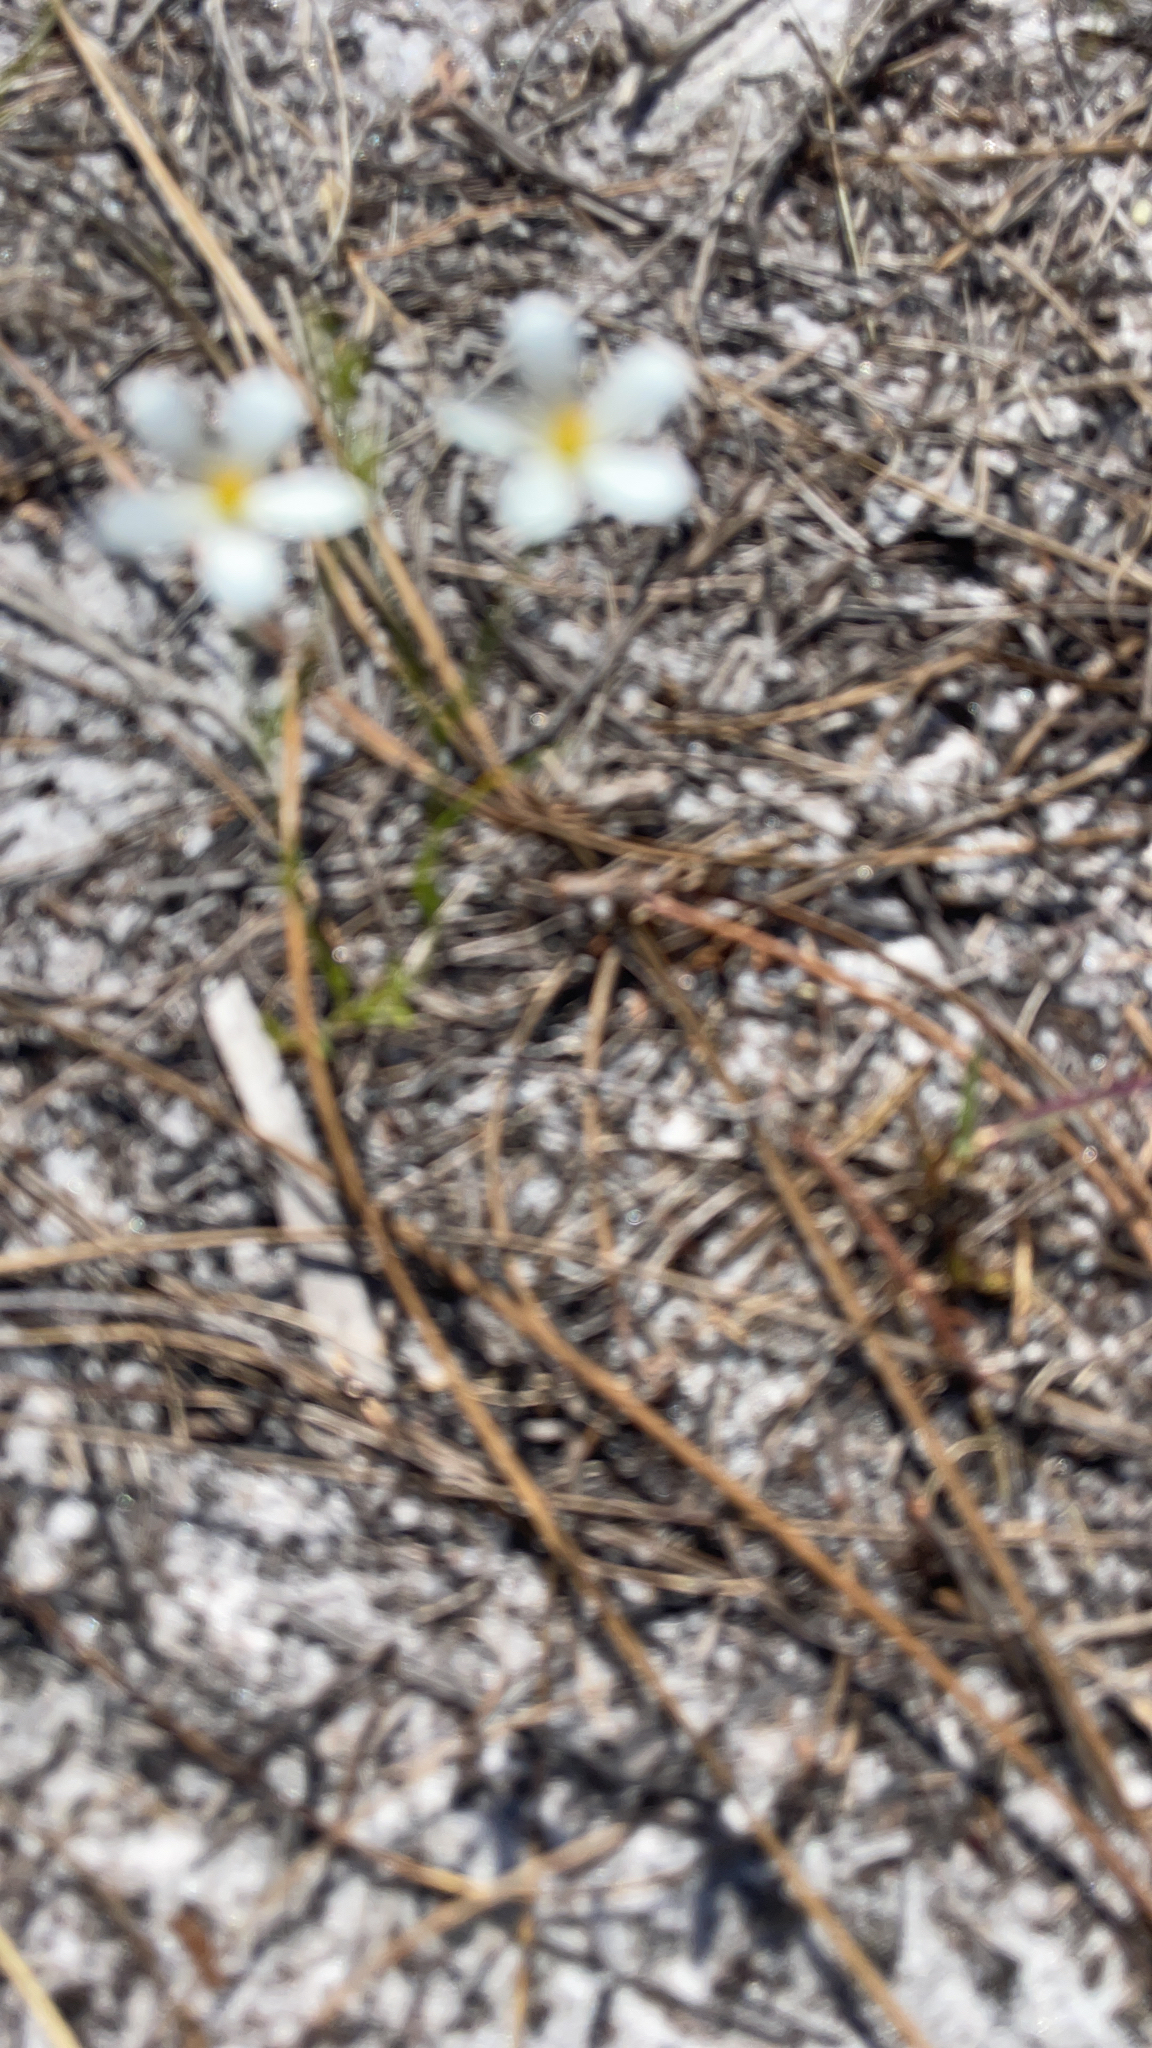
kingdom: Plantae
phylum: Tracheophyta
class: Magnoliopsida
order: Gentianales
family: Gentianaceae
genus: Sabatia
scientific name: Sabatia brevifolia
